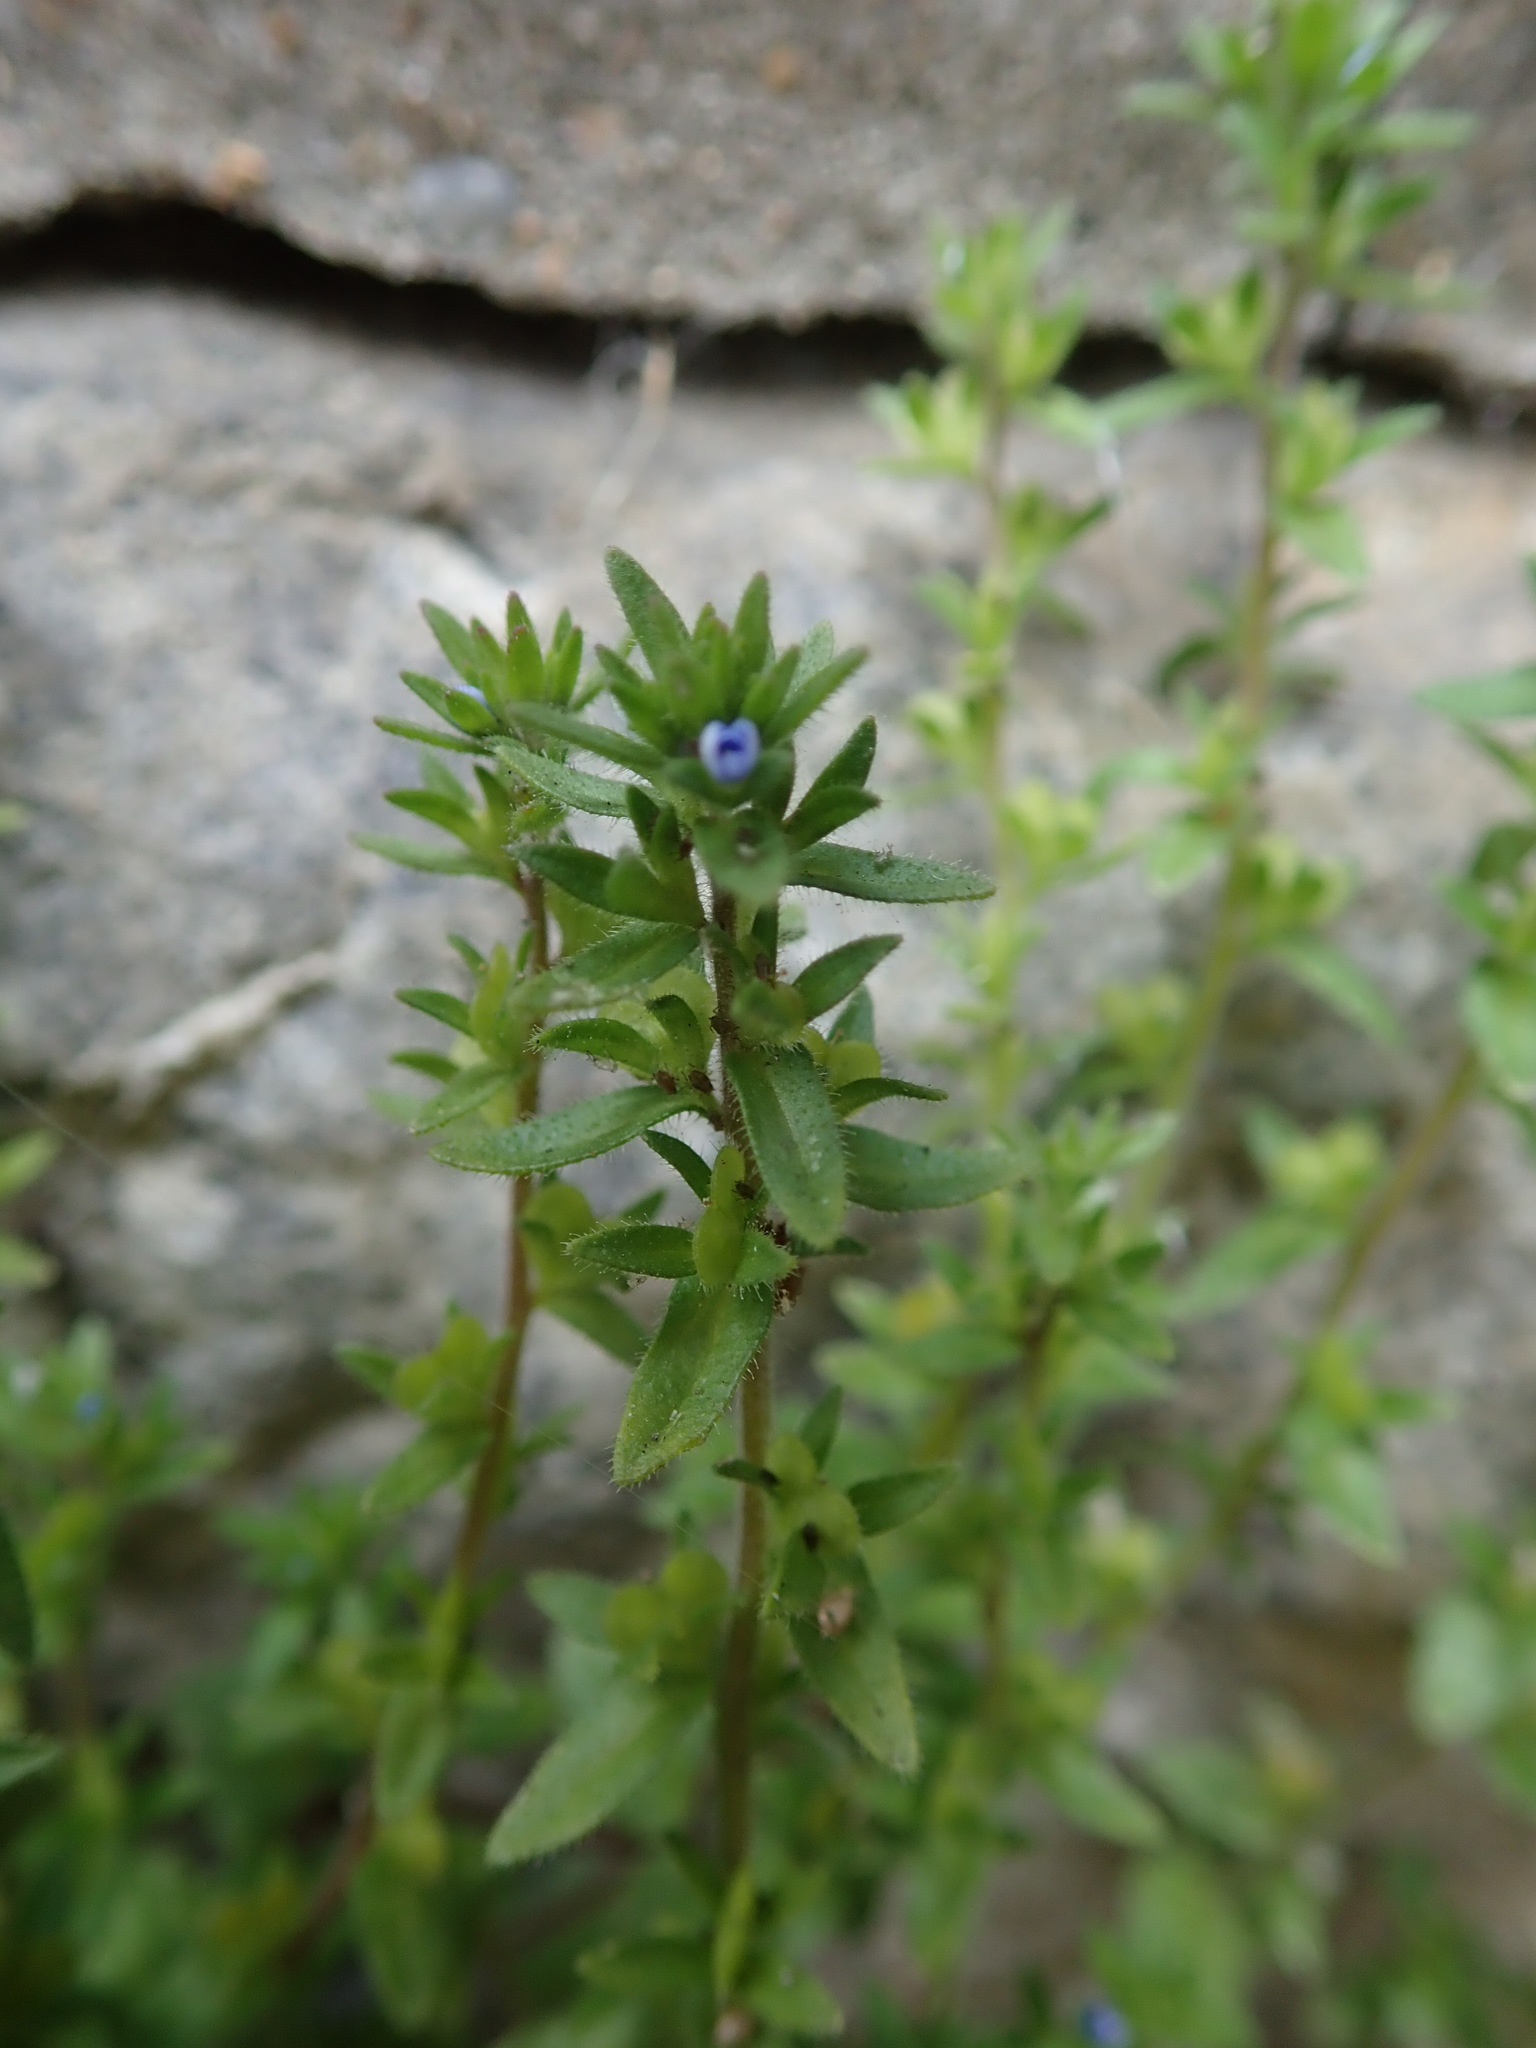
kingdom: Plantae
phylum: Tracheophyta
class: Magnoliopsida
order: Lamiales
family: Plantaginaceae
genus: Veronica
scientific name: Veronica arvensis
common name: Corn speedwell
